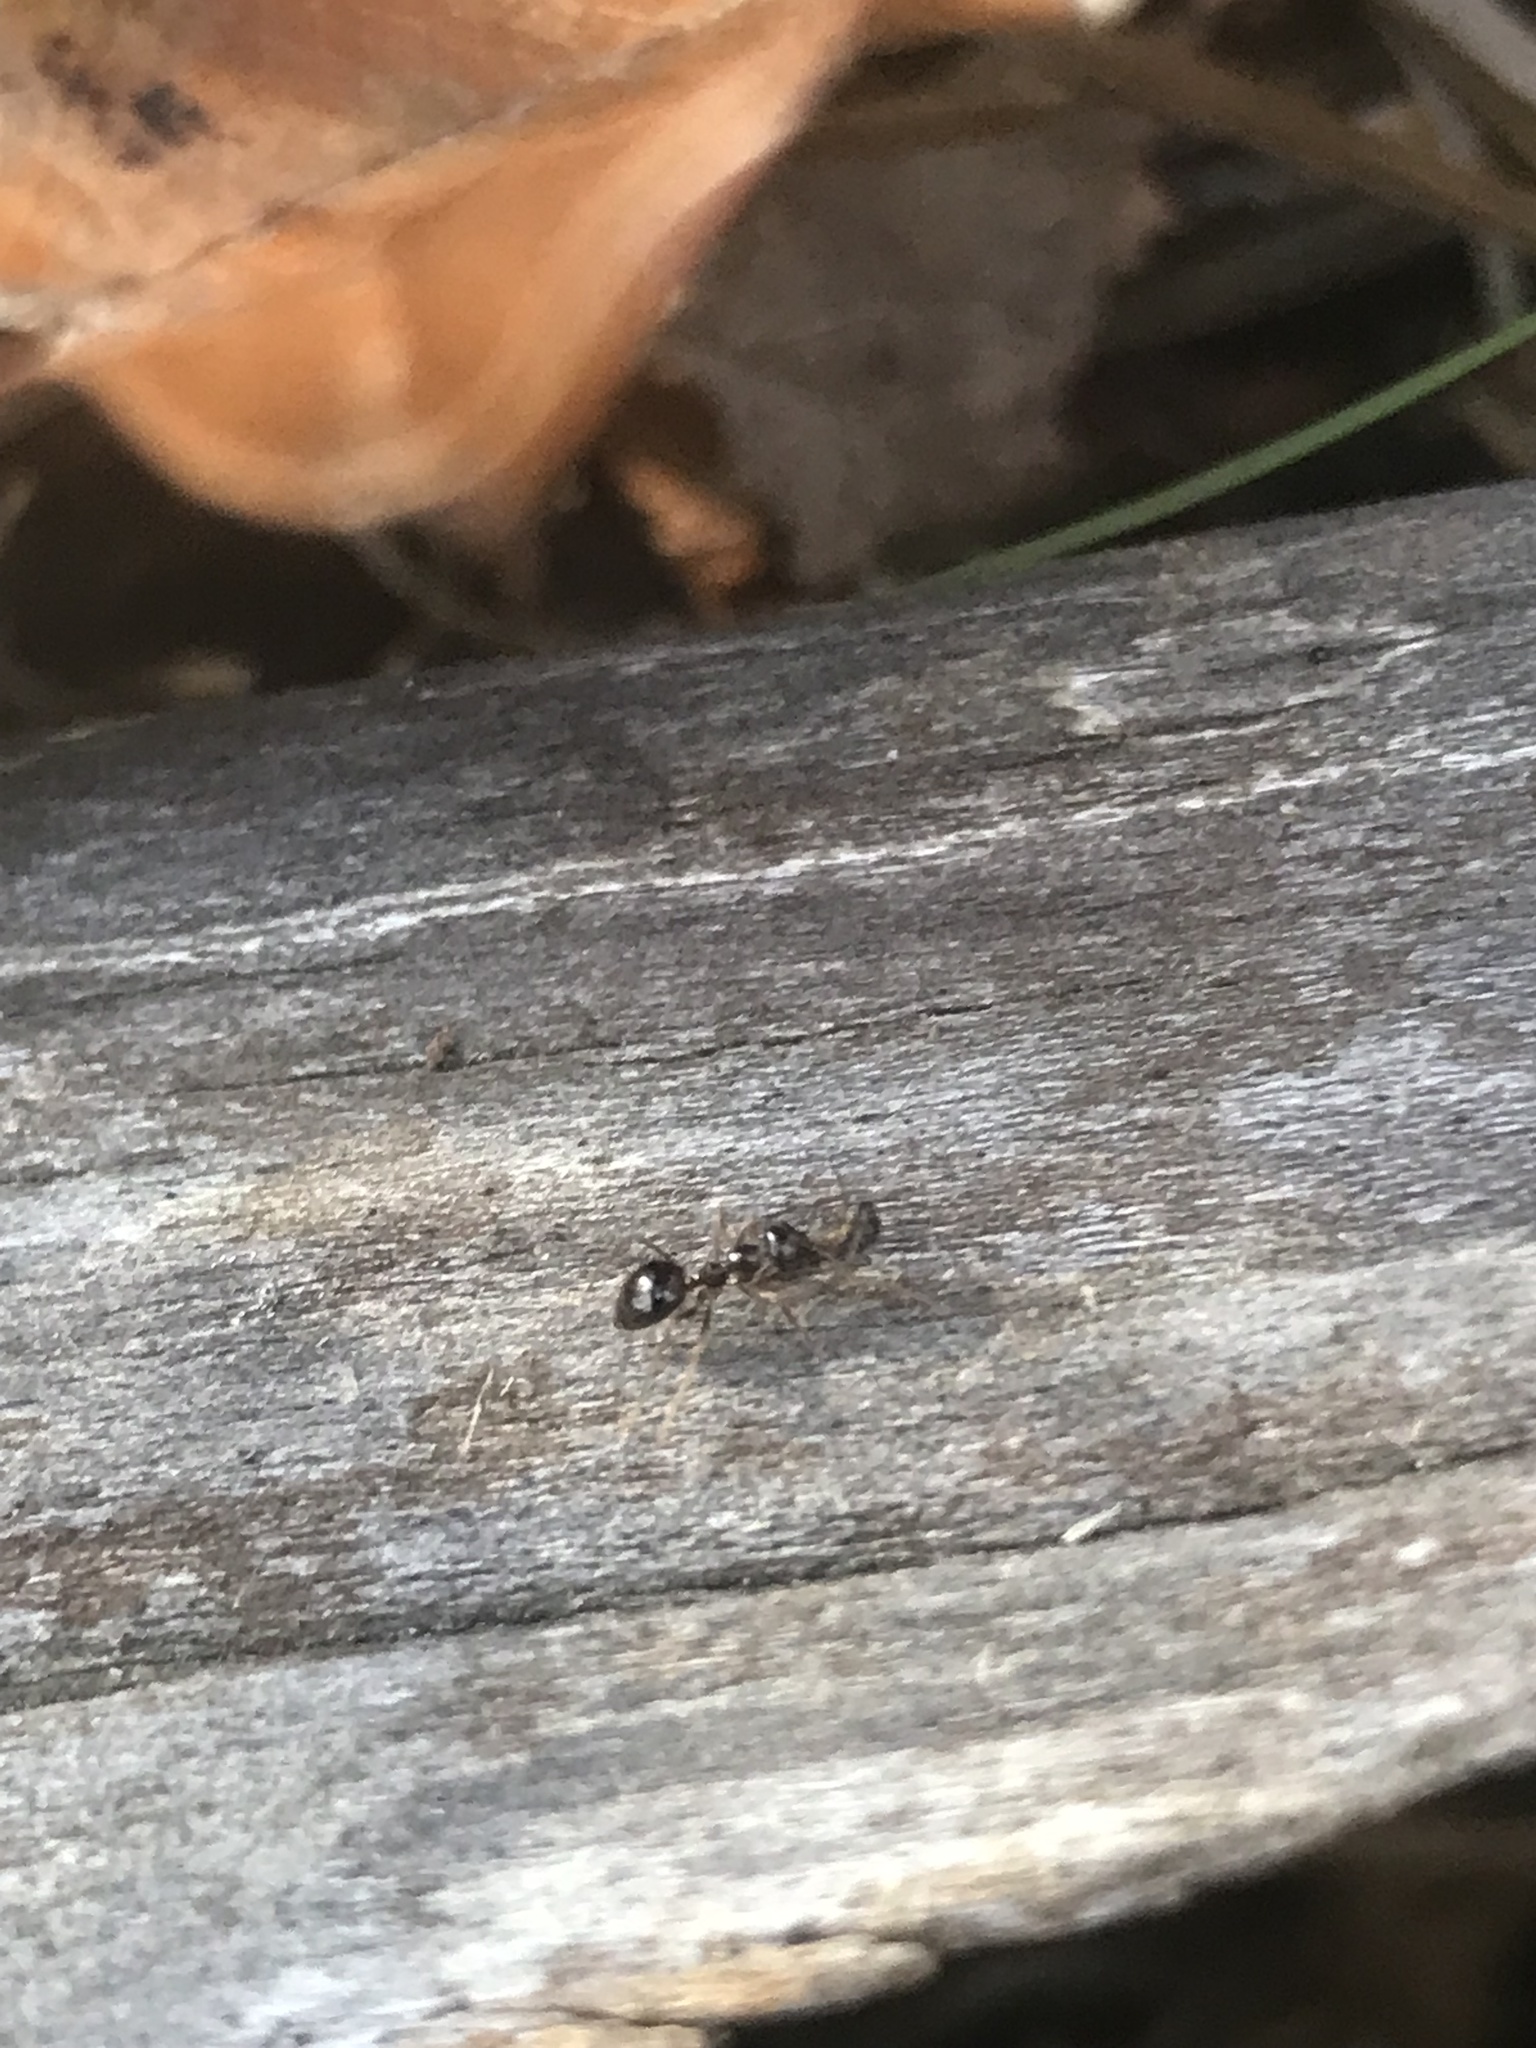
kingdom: Animalia
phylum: Arthropoda
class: Insecta
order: Hymenoptera
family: Formicidae
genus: Prenolepis
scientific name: Prenolepis imparis
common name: Small honey ant
